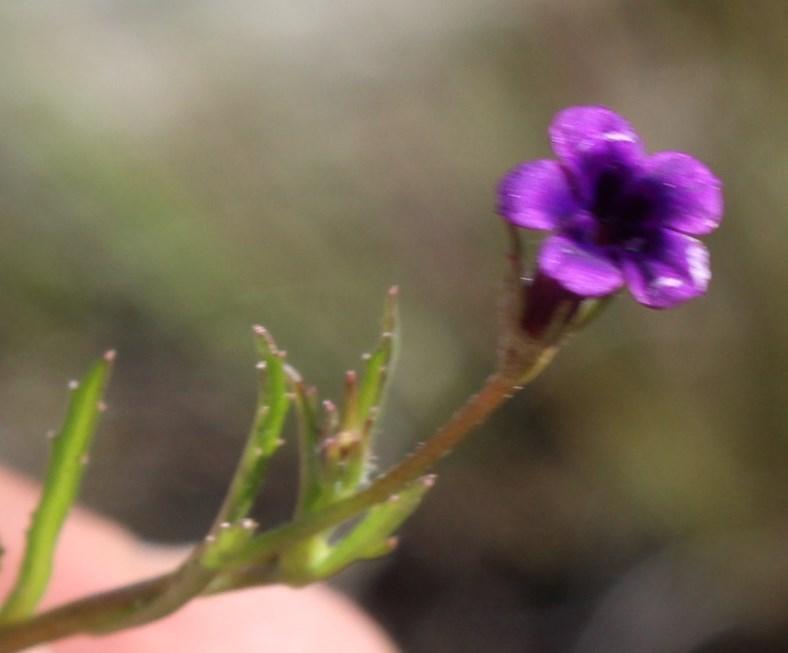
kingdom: Plantae
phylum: Tracheophyta
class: Magnoliopsida
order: Asterales
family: Campanulaceae
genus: Monopsis
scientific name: Monopsis debilis
